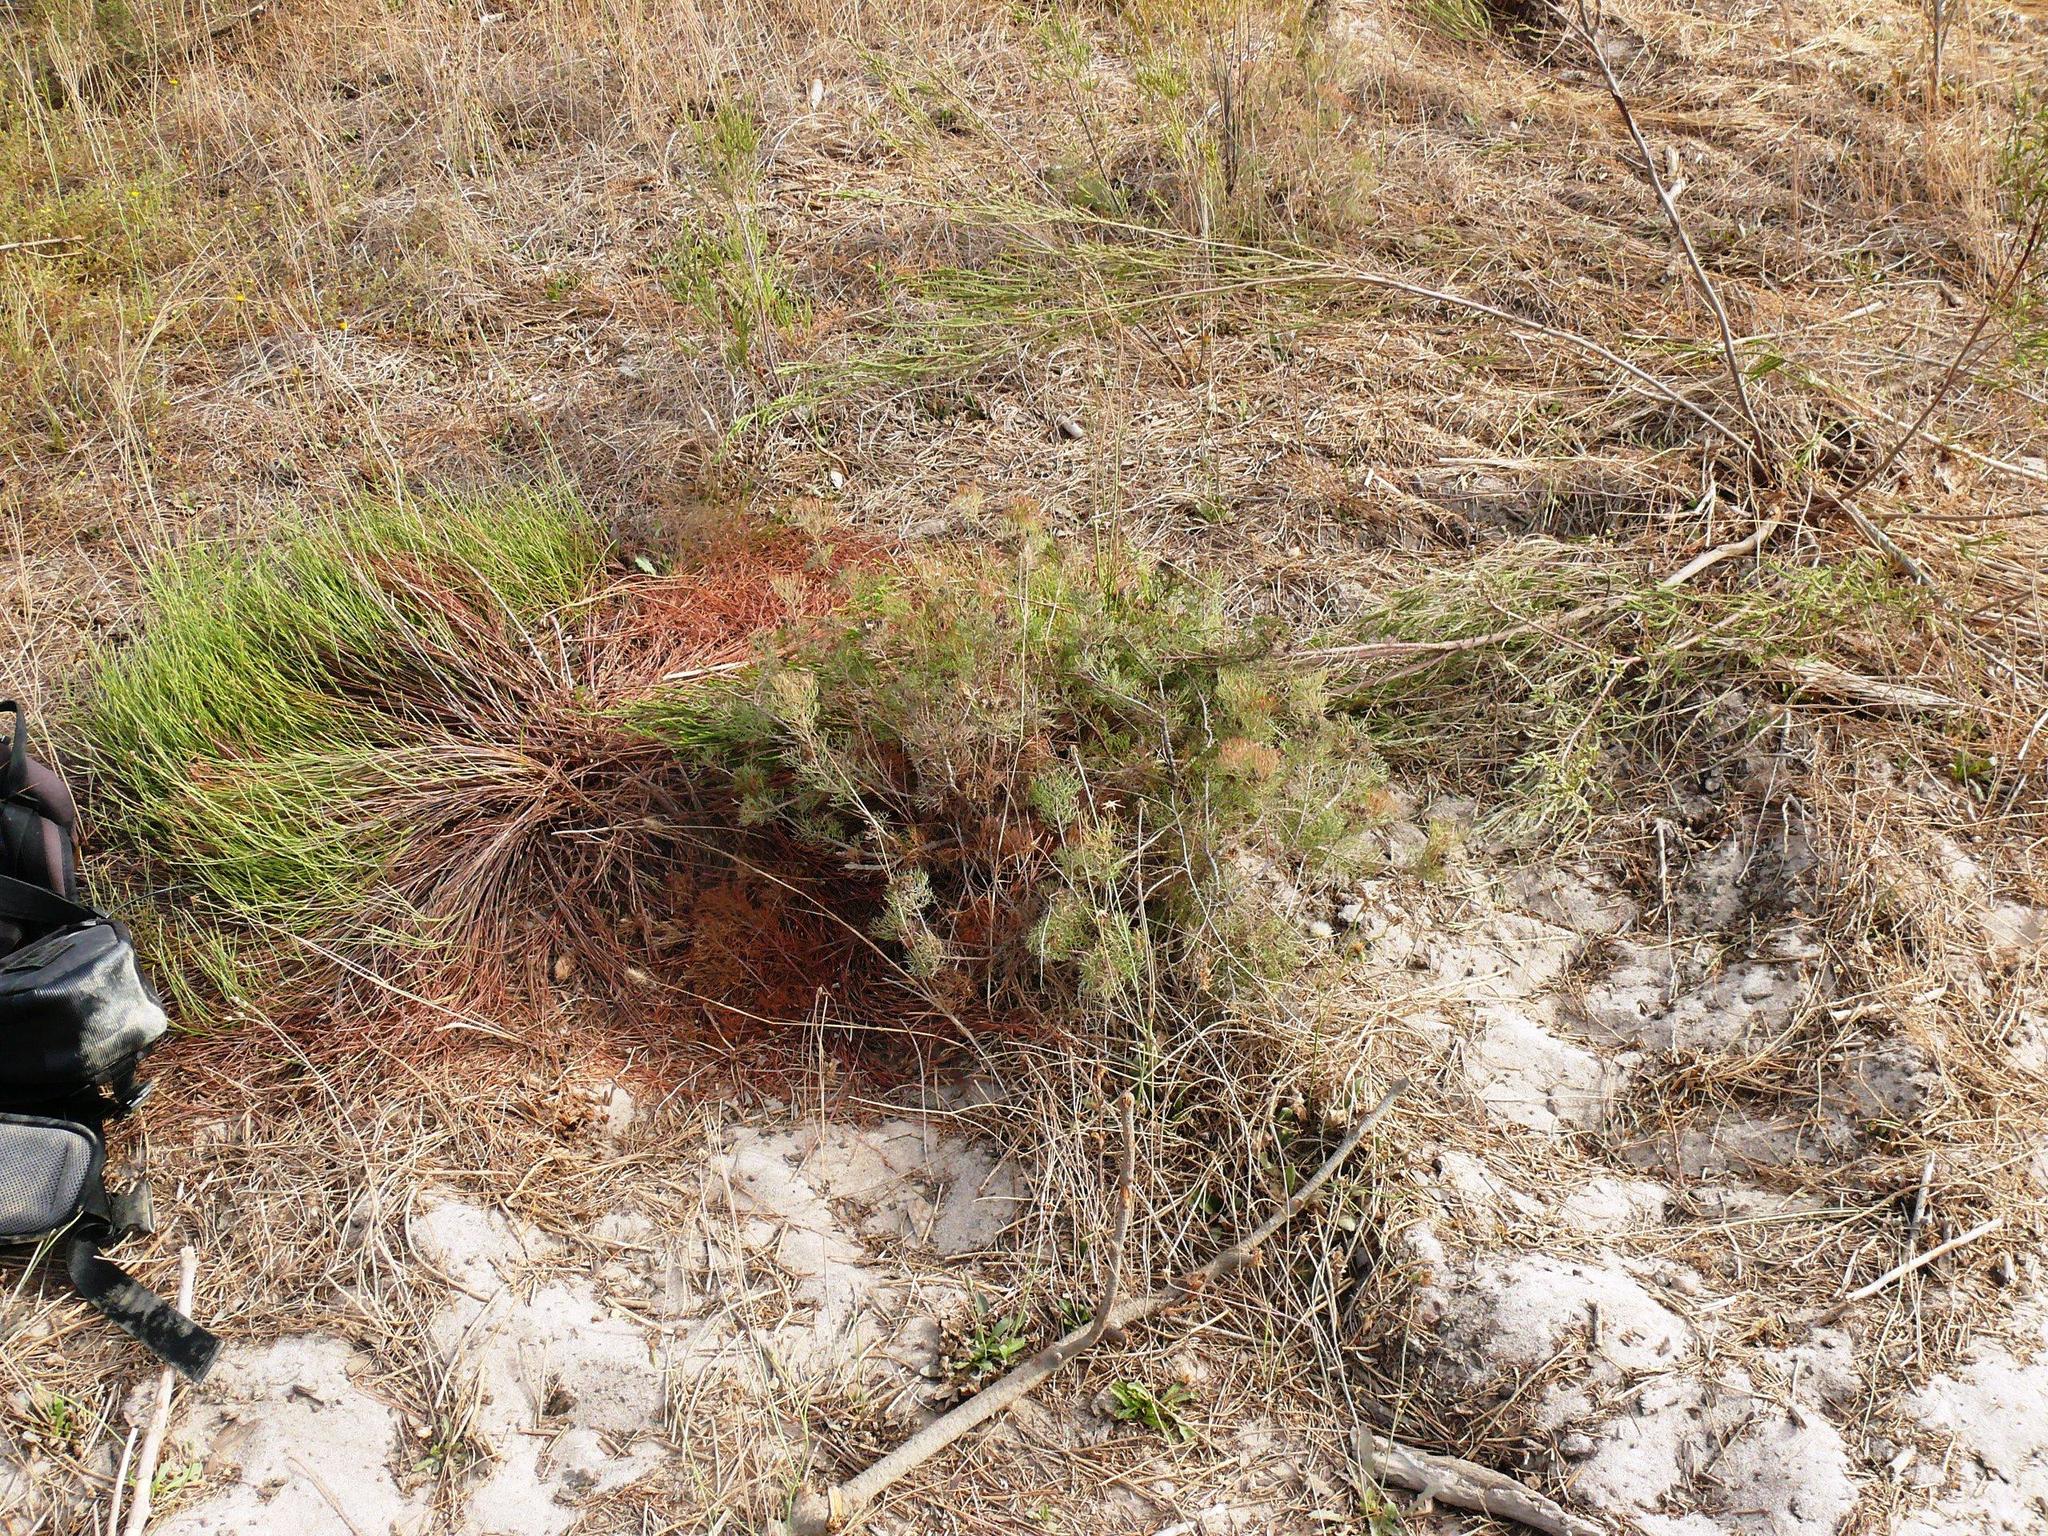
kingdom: Plantae
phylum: Tracheophyta
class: Magnoliopsida
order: Proteales
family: Proteaceae
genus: Serruria
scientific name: Serruria fasciflora
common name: Common pin spiderhead
